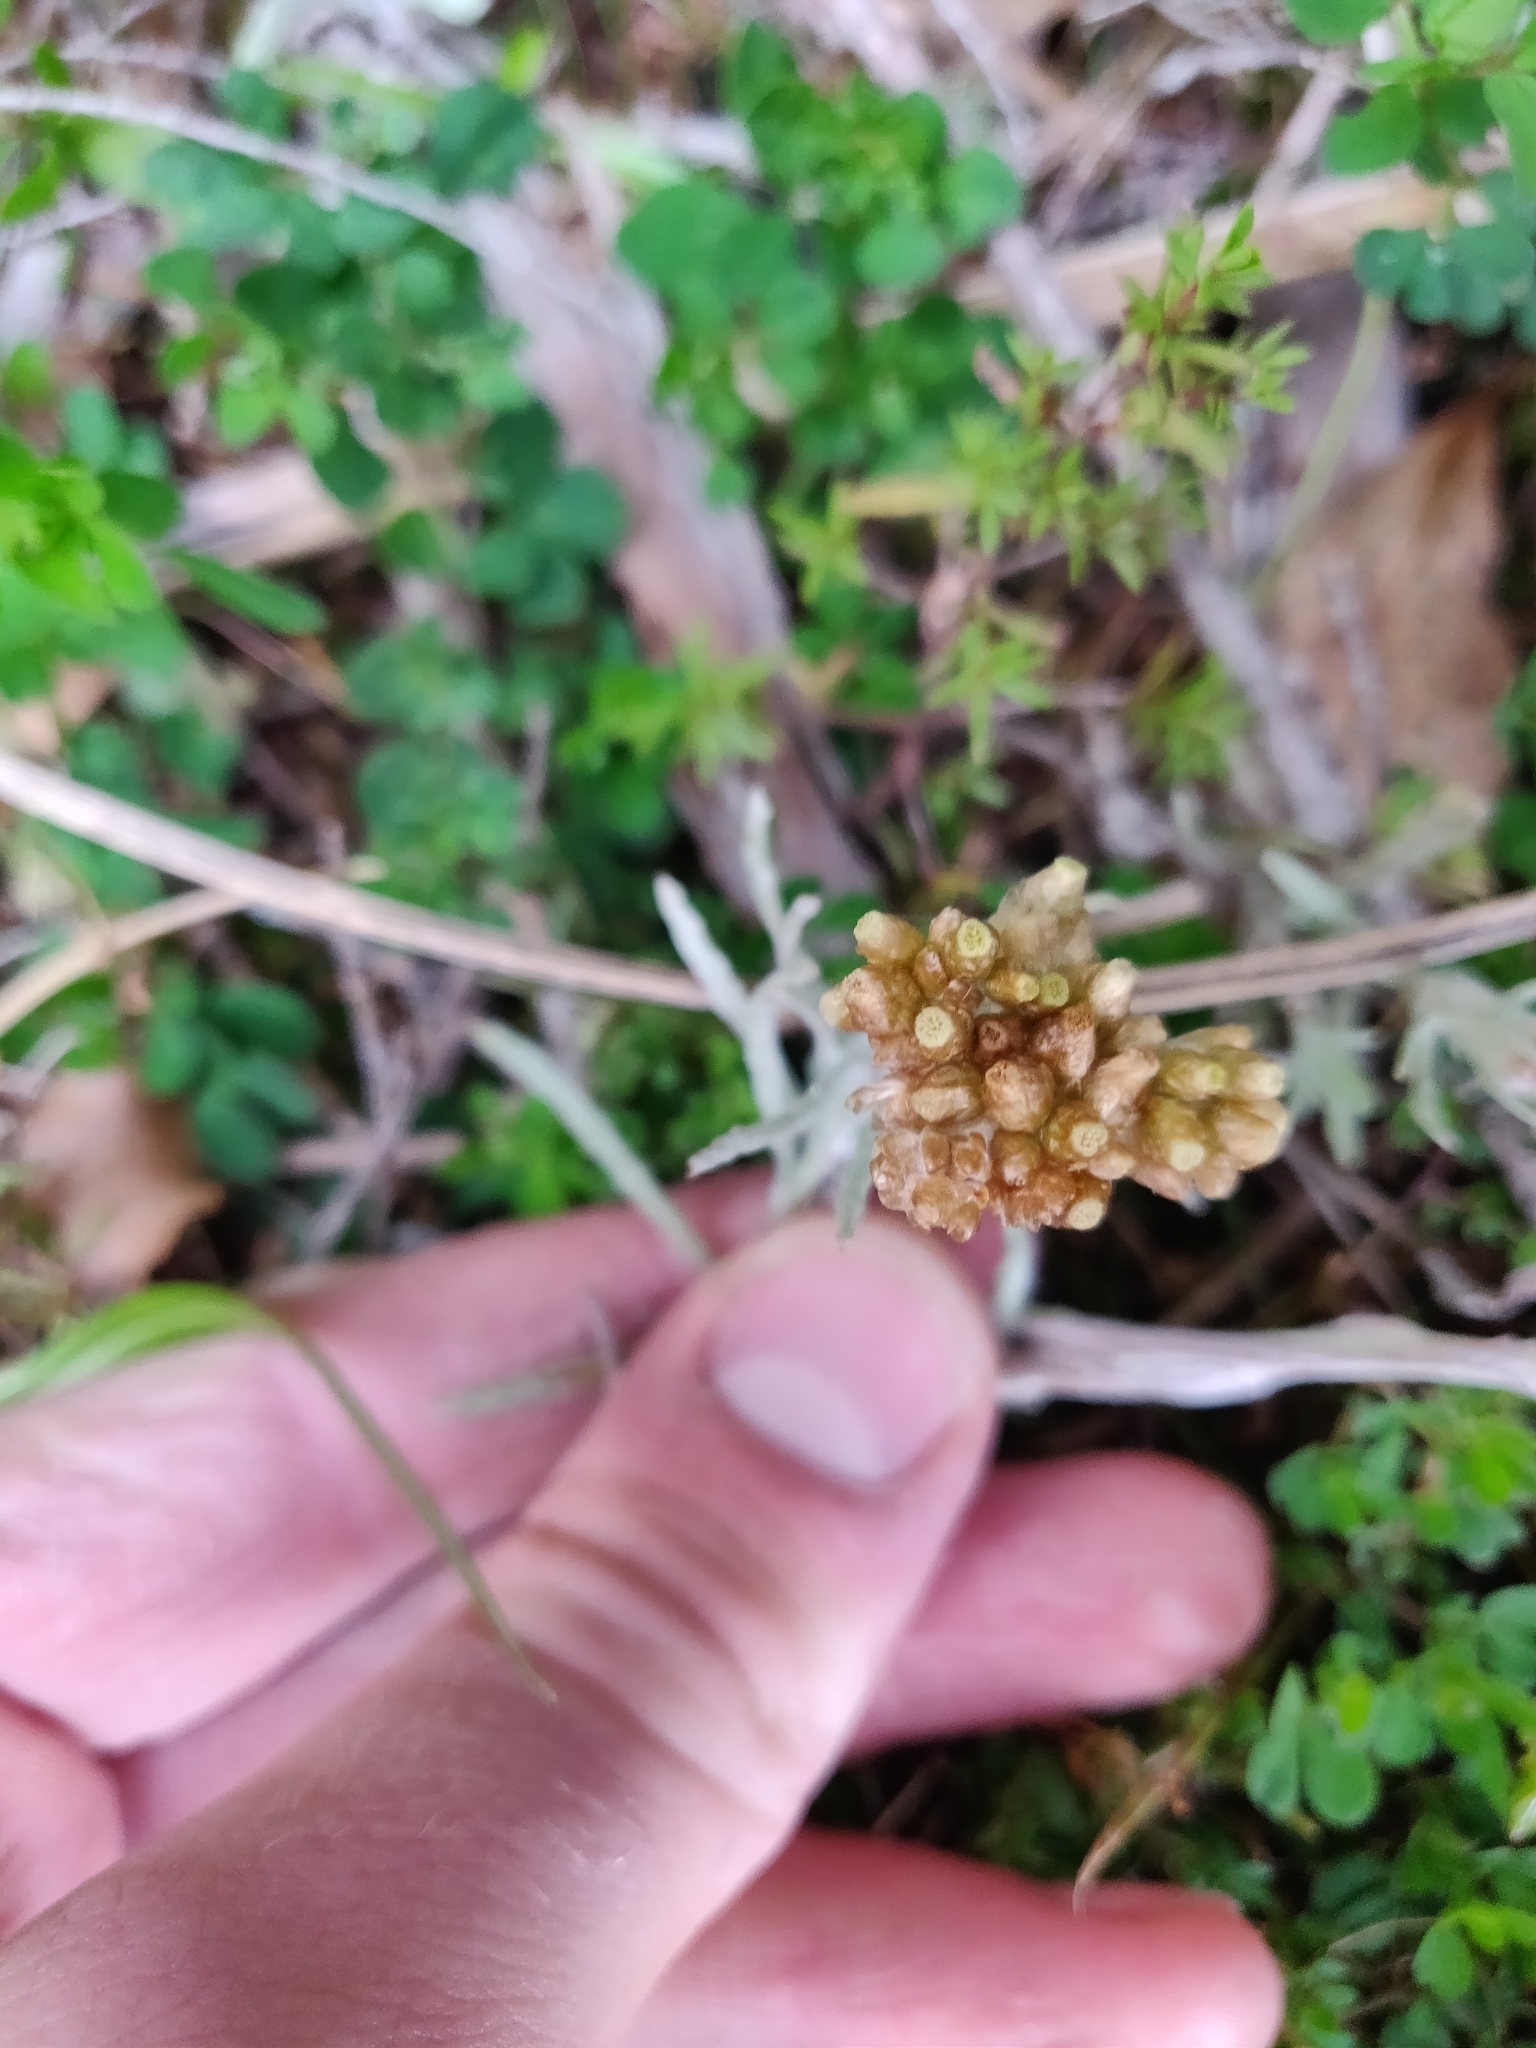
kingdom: Plantae
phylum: Tracheophyta
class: Magnoliopsida
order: Asterales
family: Asteraceae
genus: Helichrysum
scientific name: Helichrysum luteoalbum
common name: Daisy
